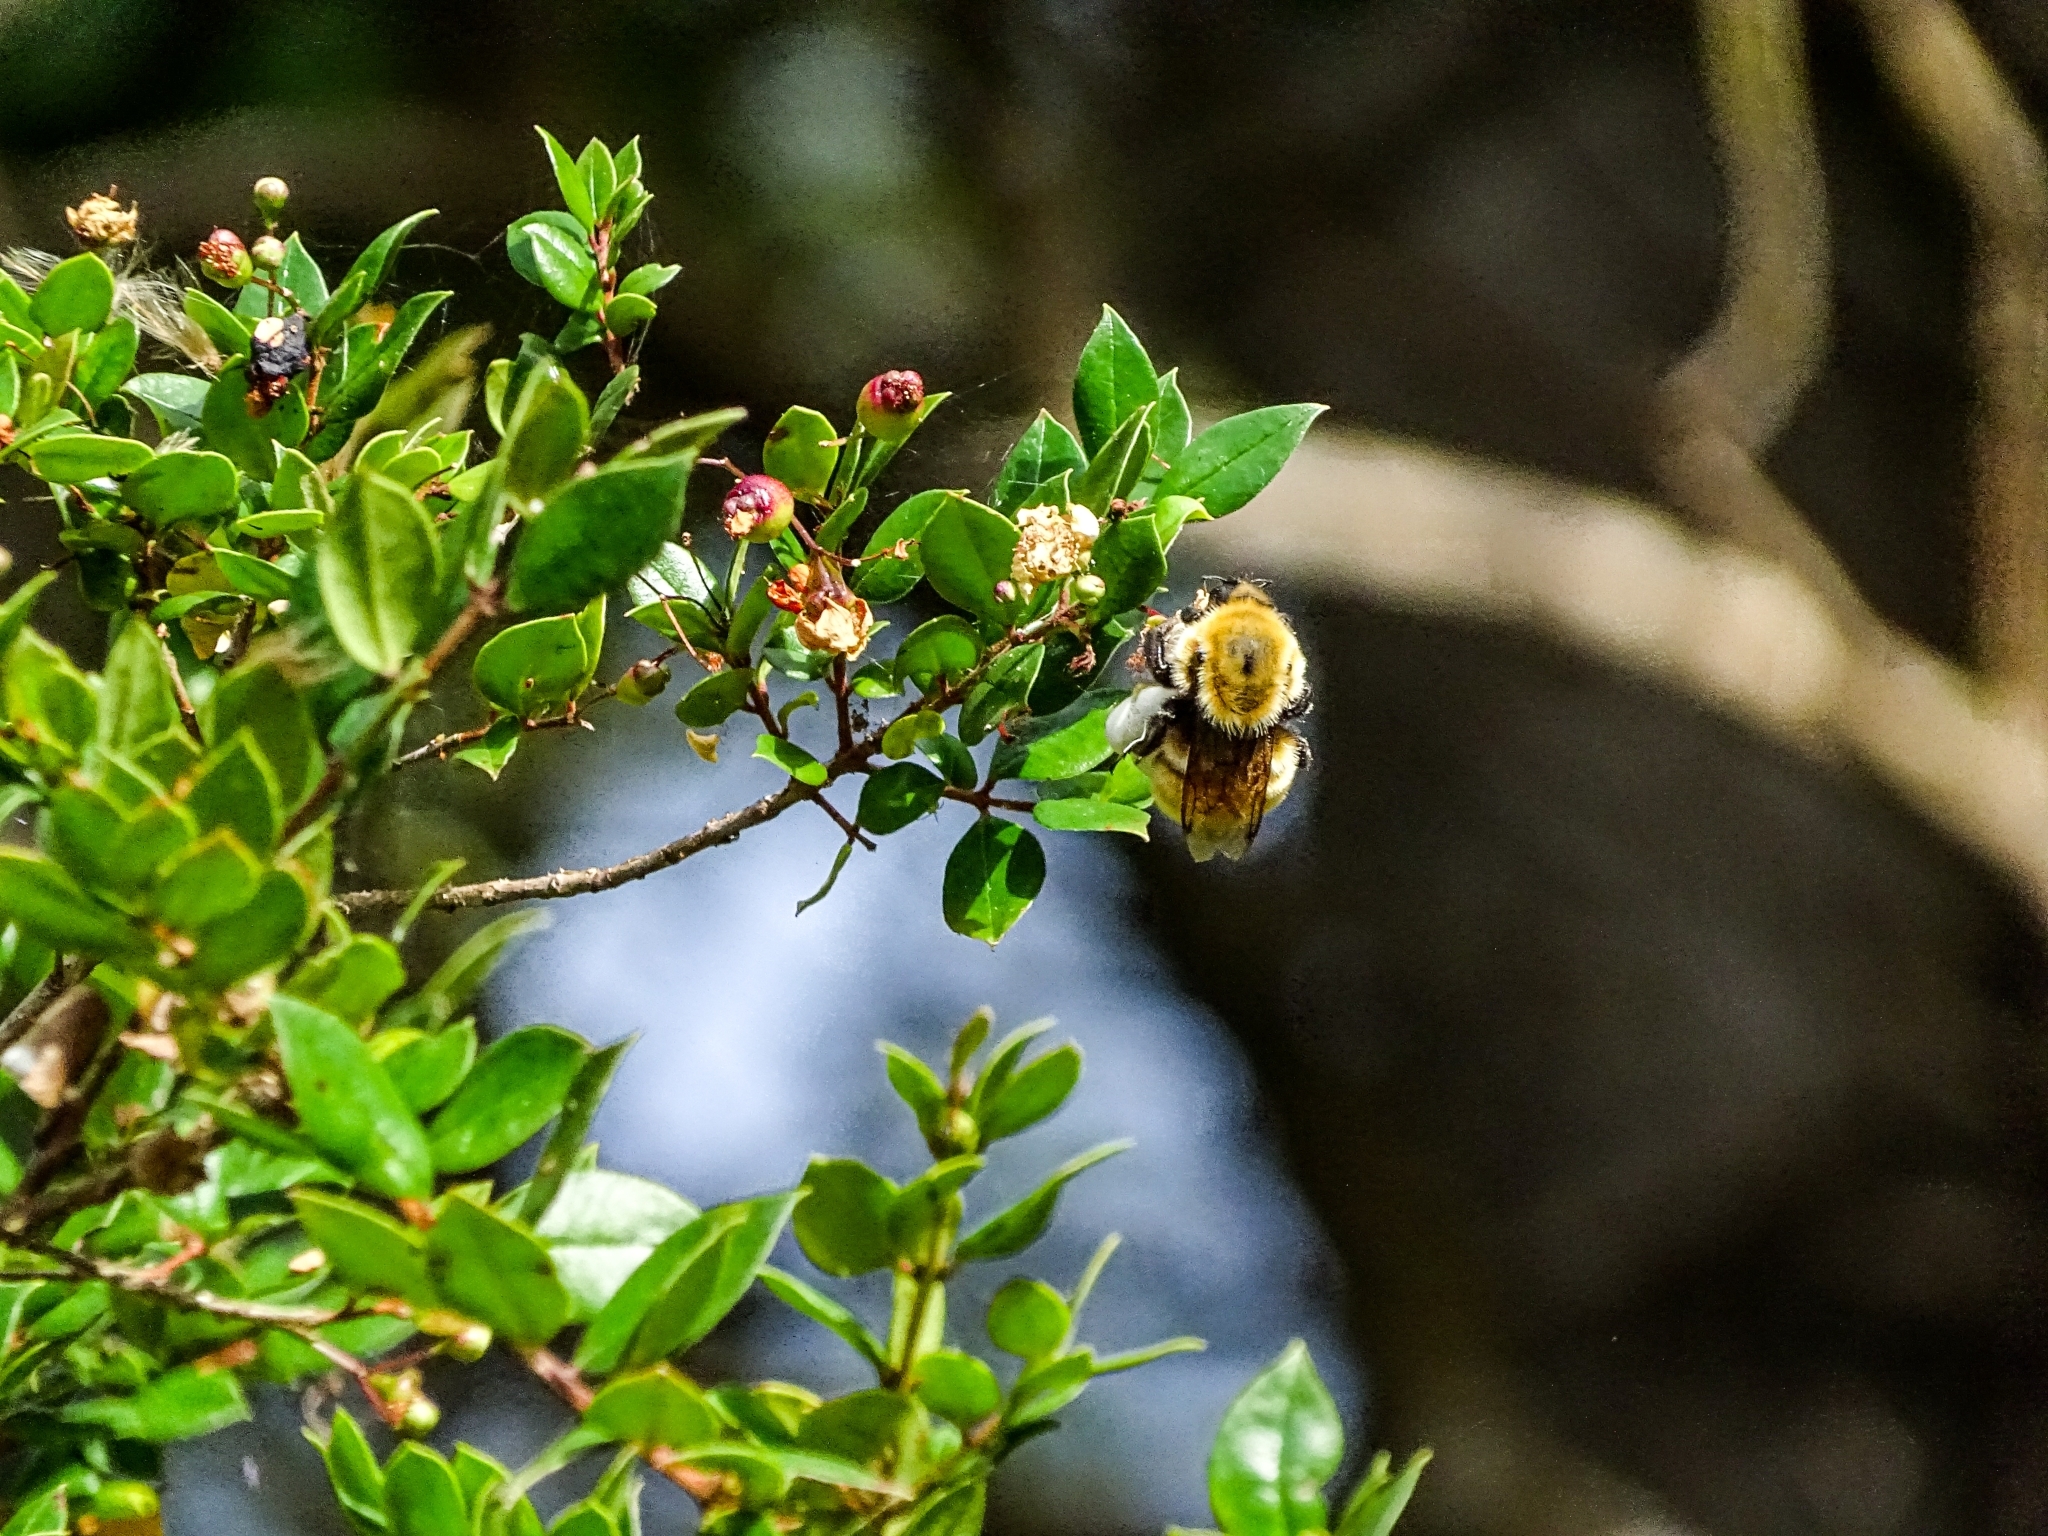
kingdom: Animalia
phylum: Arthropoda
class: Insecta
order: Hymenoptera
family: Apidae
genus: Bombus
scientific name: Bombus dahlbomii
